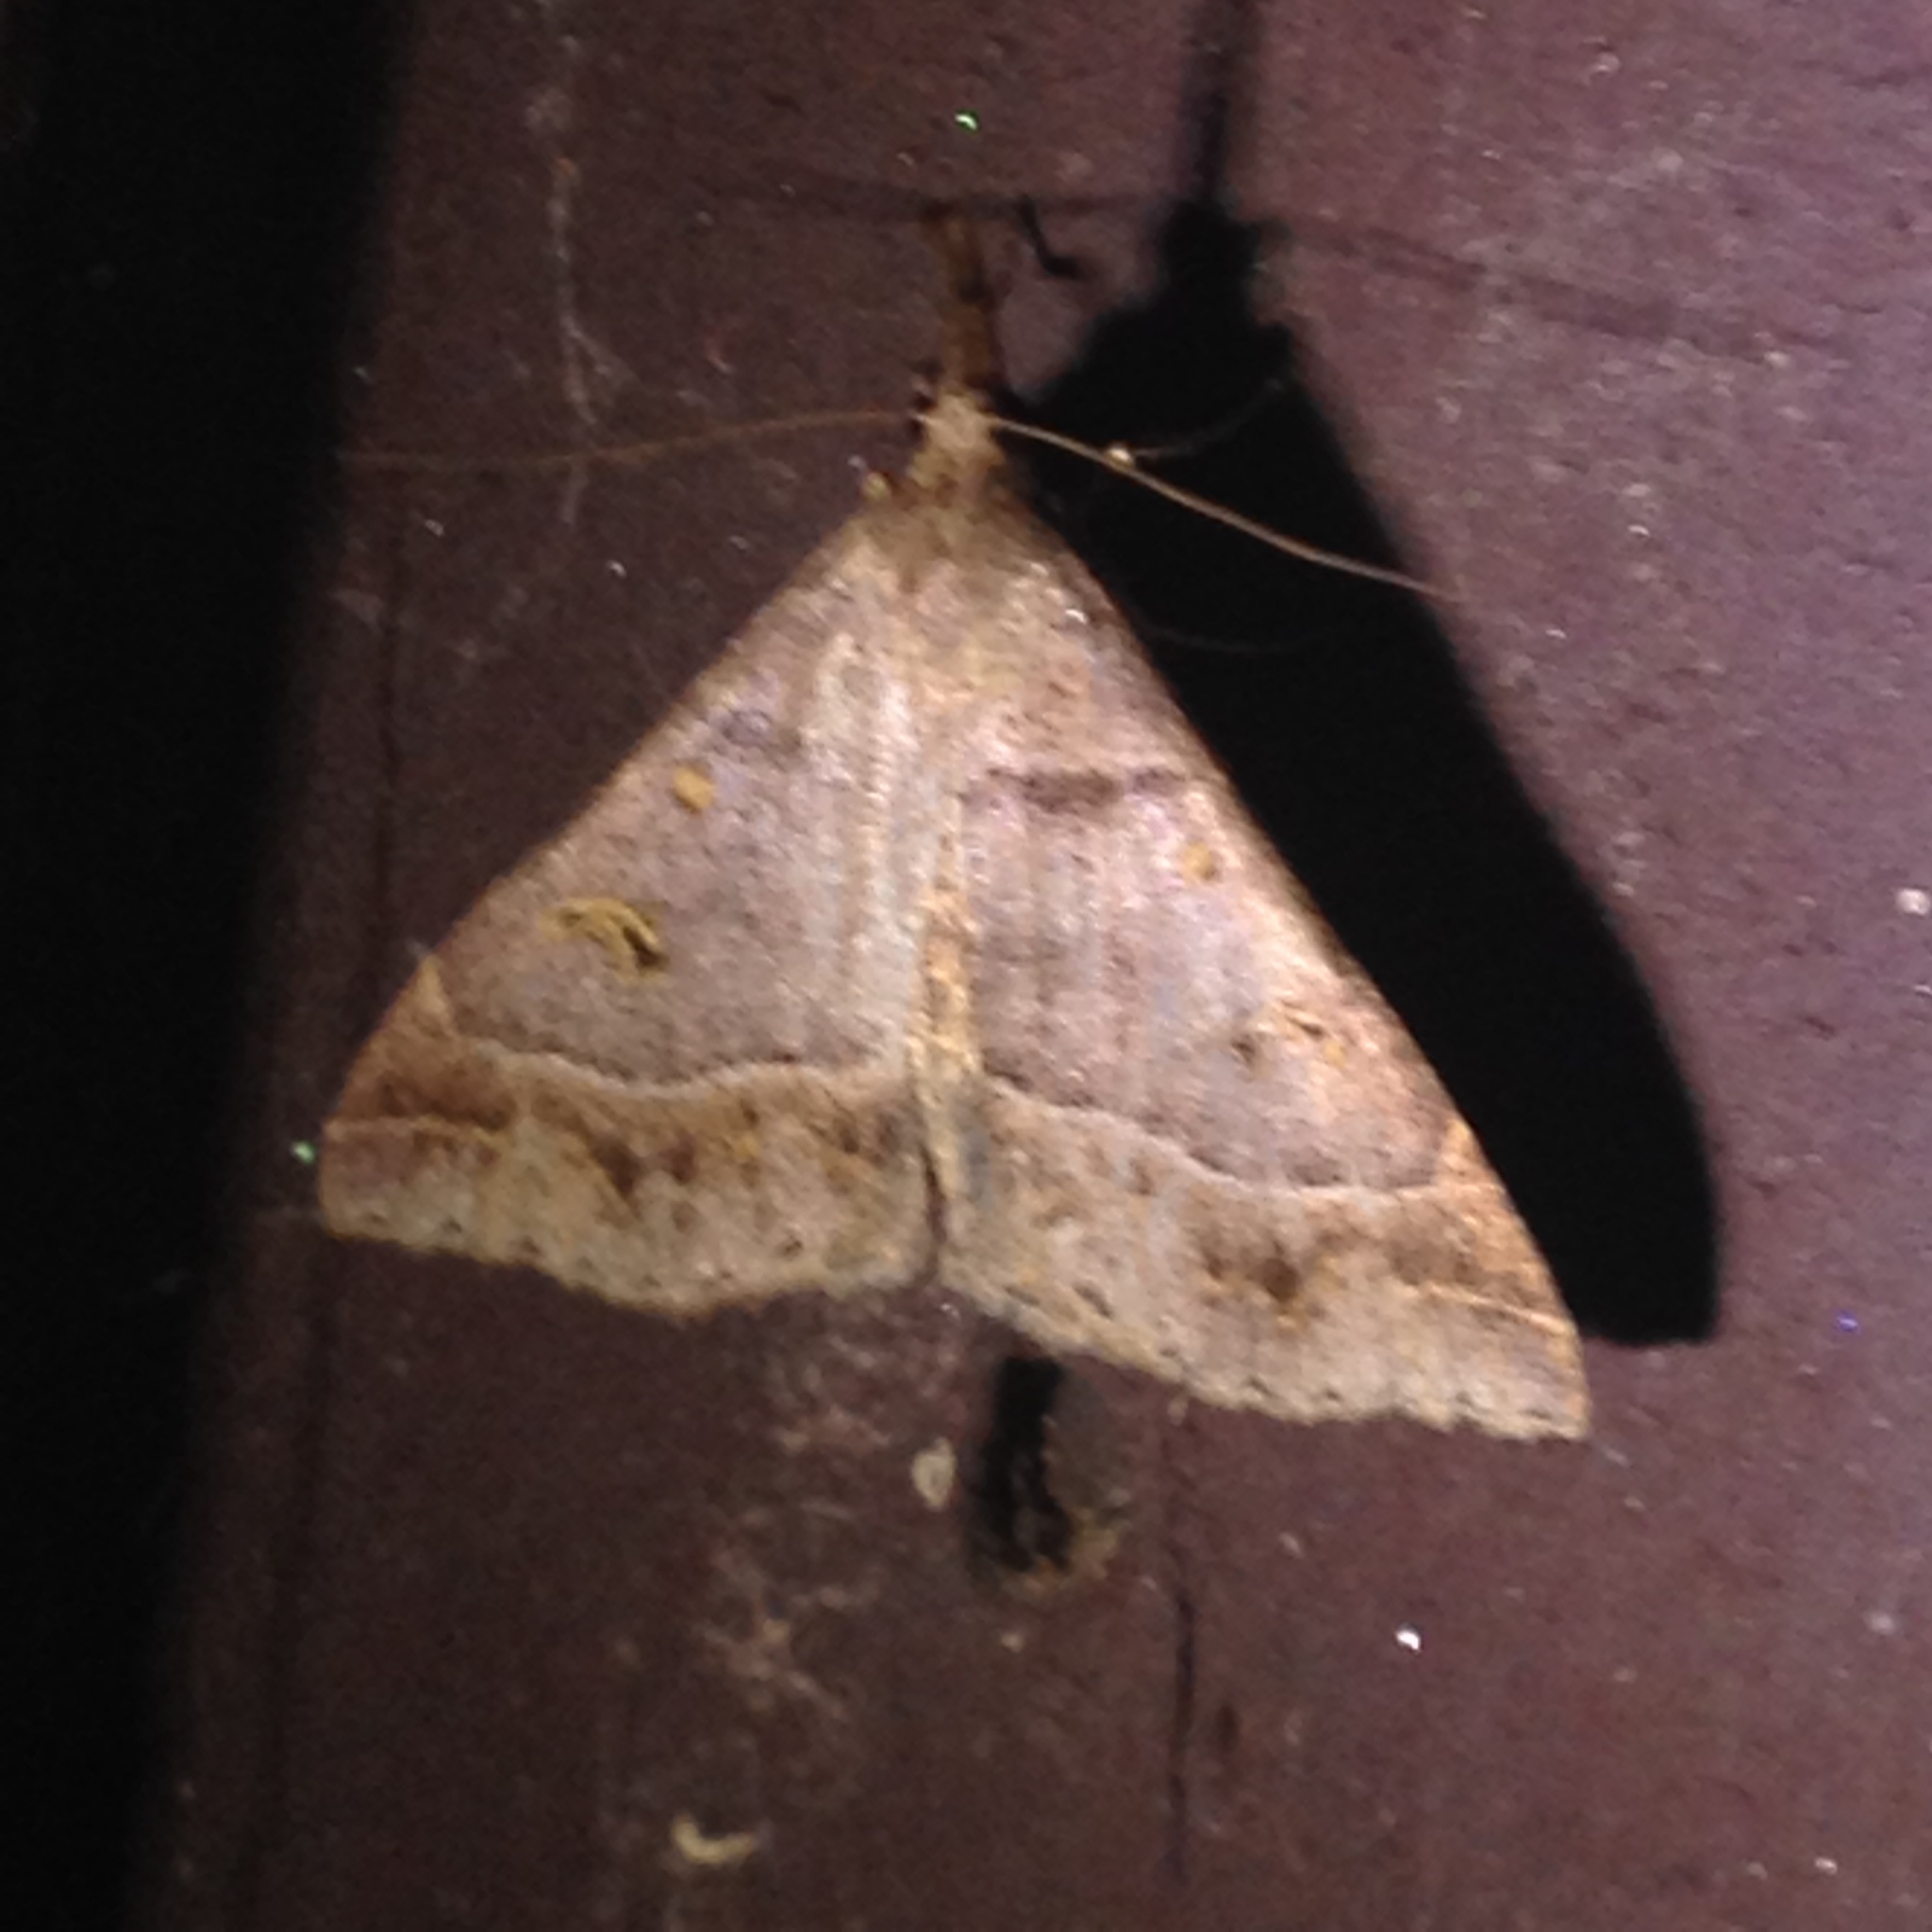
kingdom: Animalia
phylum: Arthropoda
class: Insecta
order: Lepidoptera
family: Erebidae
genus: Renia
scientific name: Renia flavipunctalis
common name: Yellow-spotted renia moth
